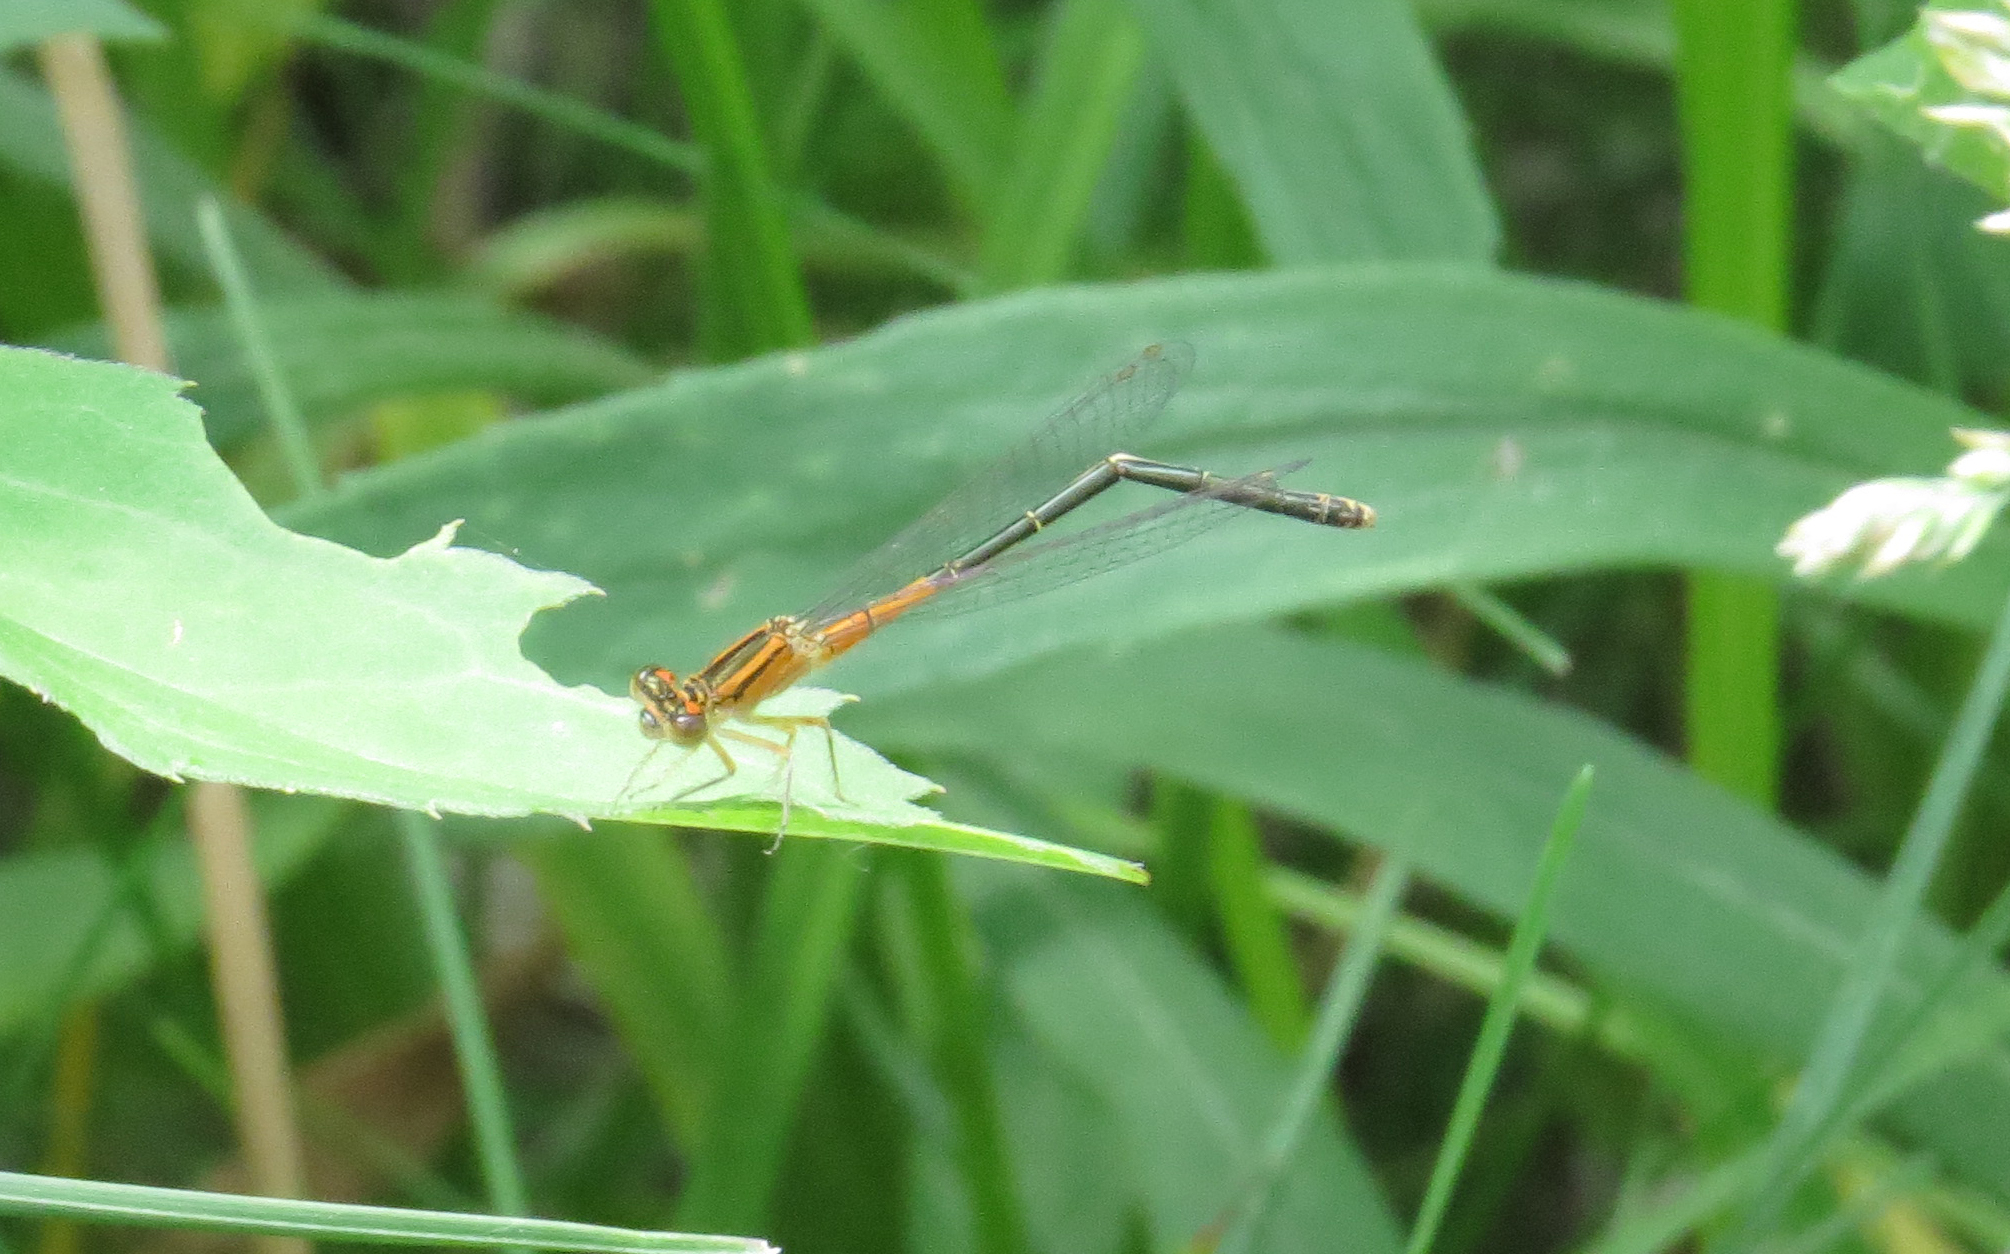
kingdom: Animalia
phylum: Arthropoda
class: Insecta
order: Odonata
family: Coenagrionidae
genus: Ischnura
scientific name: Ischnura verticalis
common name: Eastern forktail
